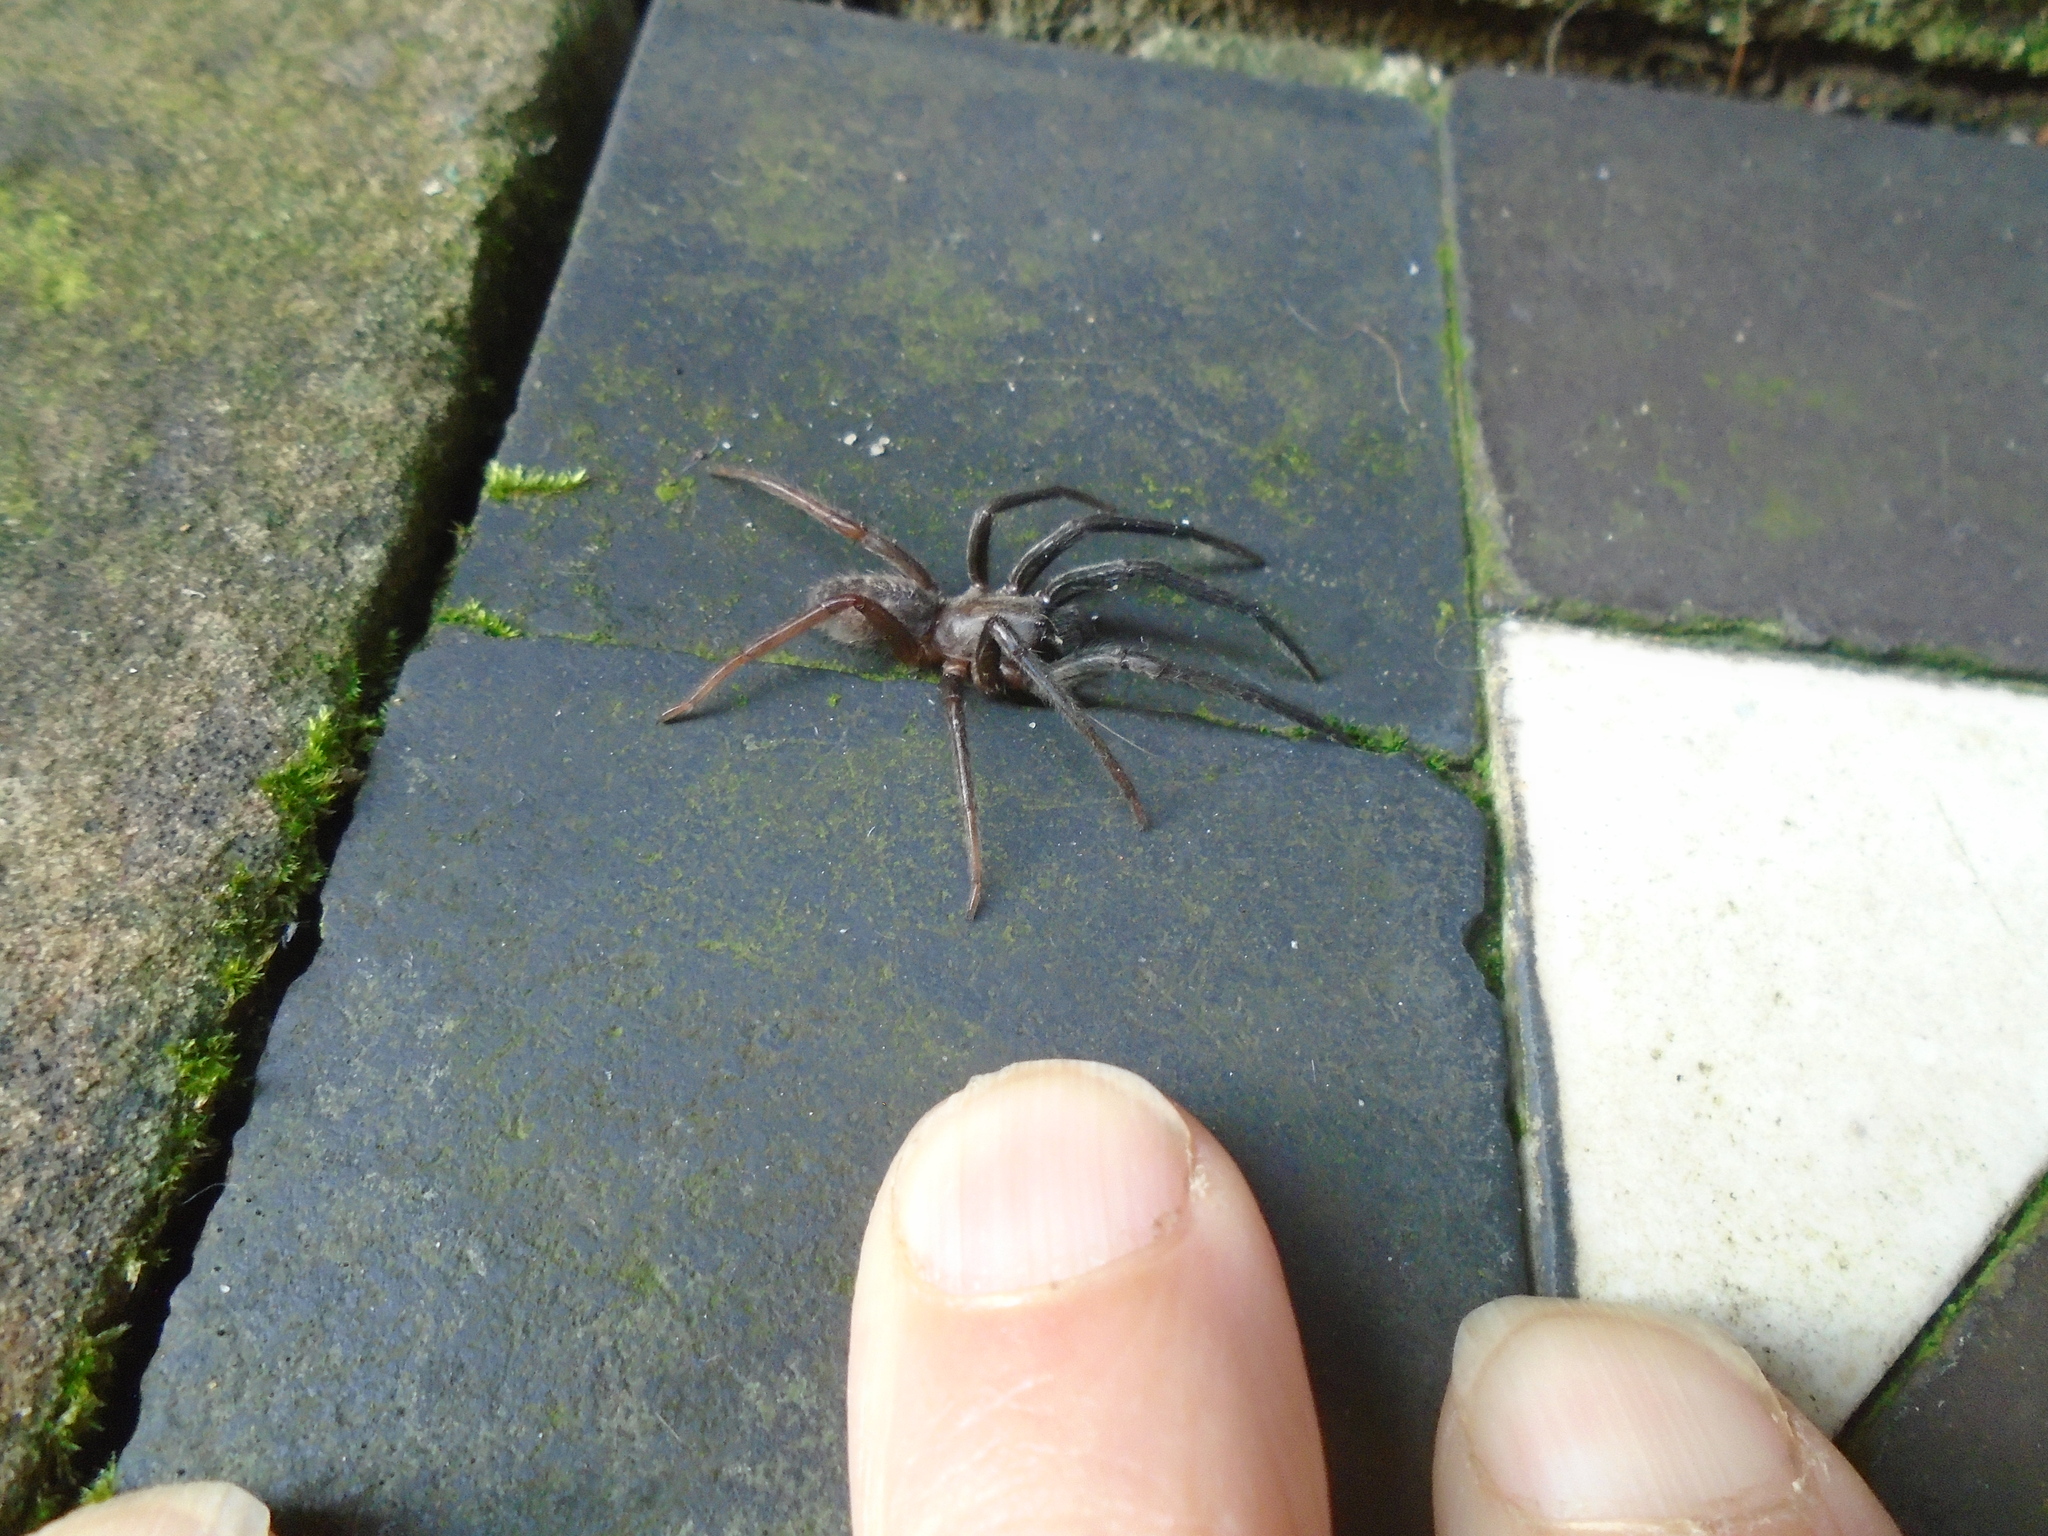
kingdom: Animalia
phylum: Arthropoda
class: Arachnida
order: Araneae
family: Segestriidae
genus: Segestria
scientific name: Segestria florentina
